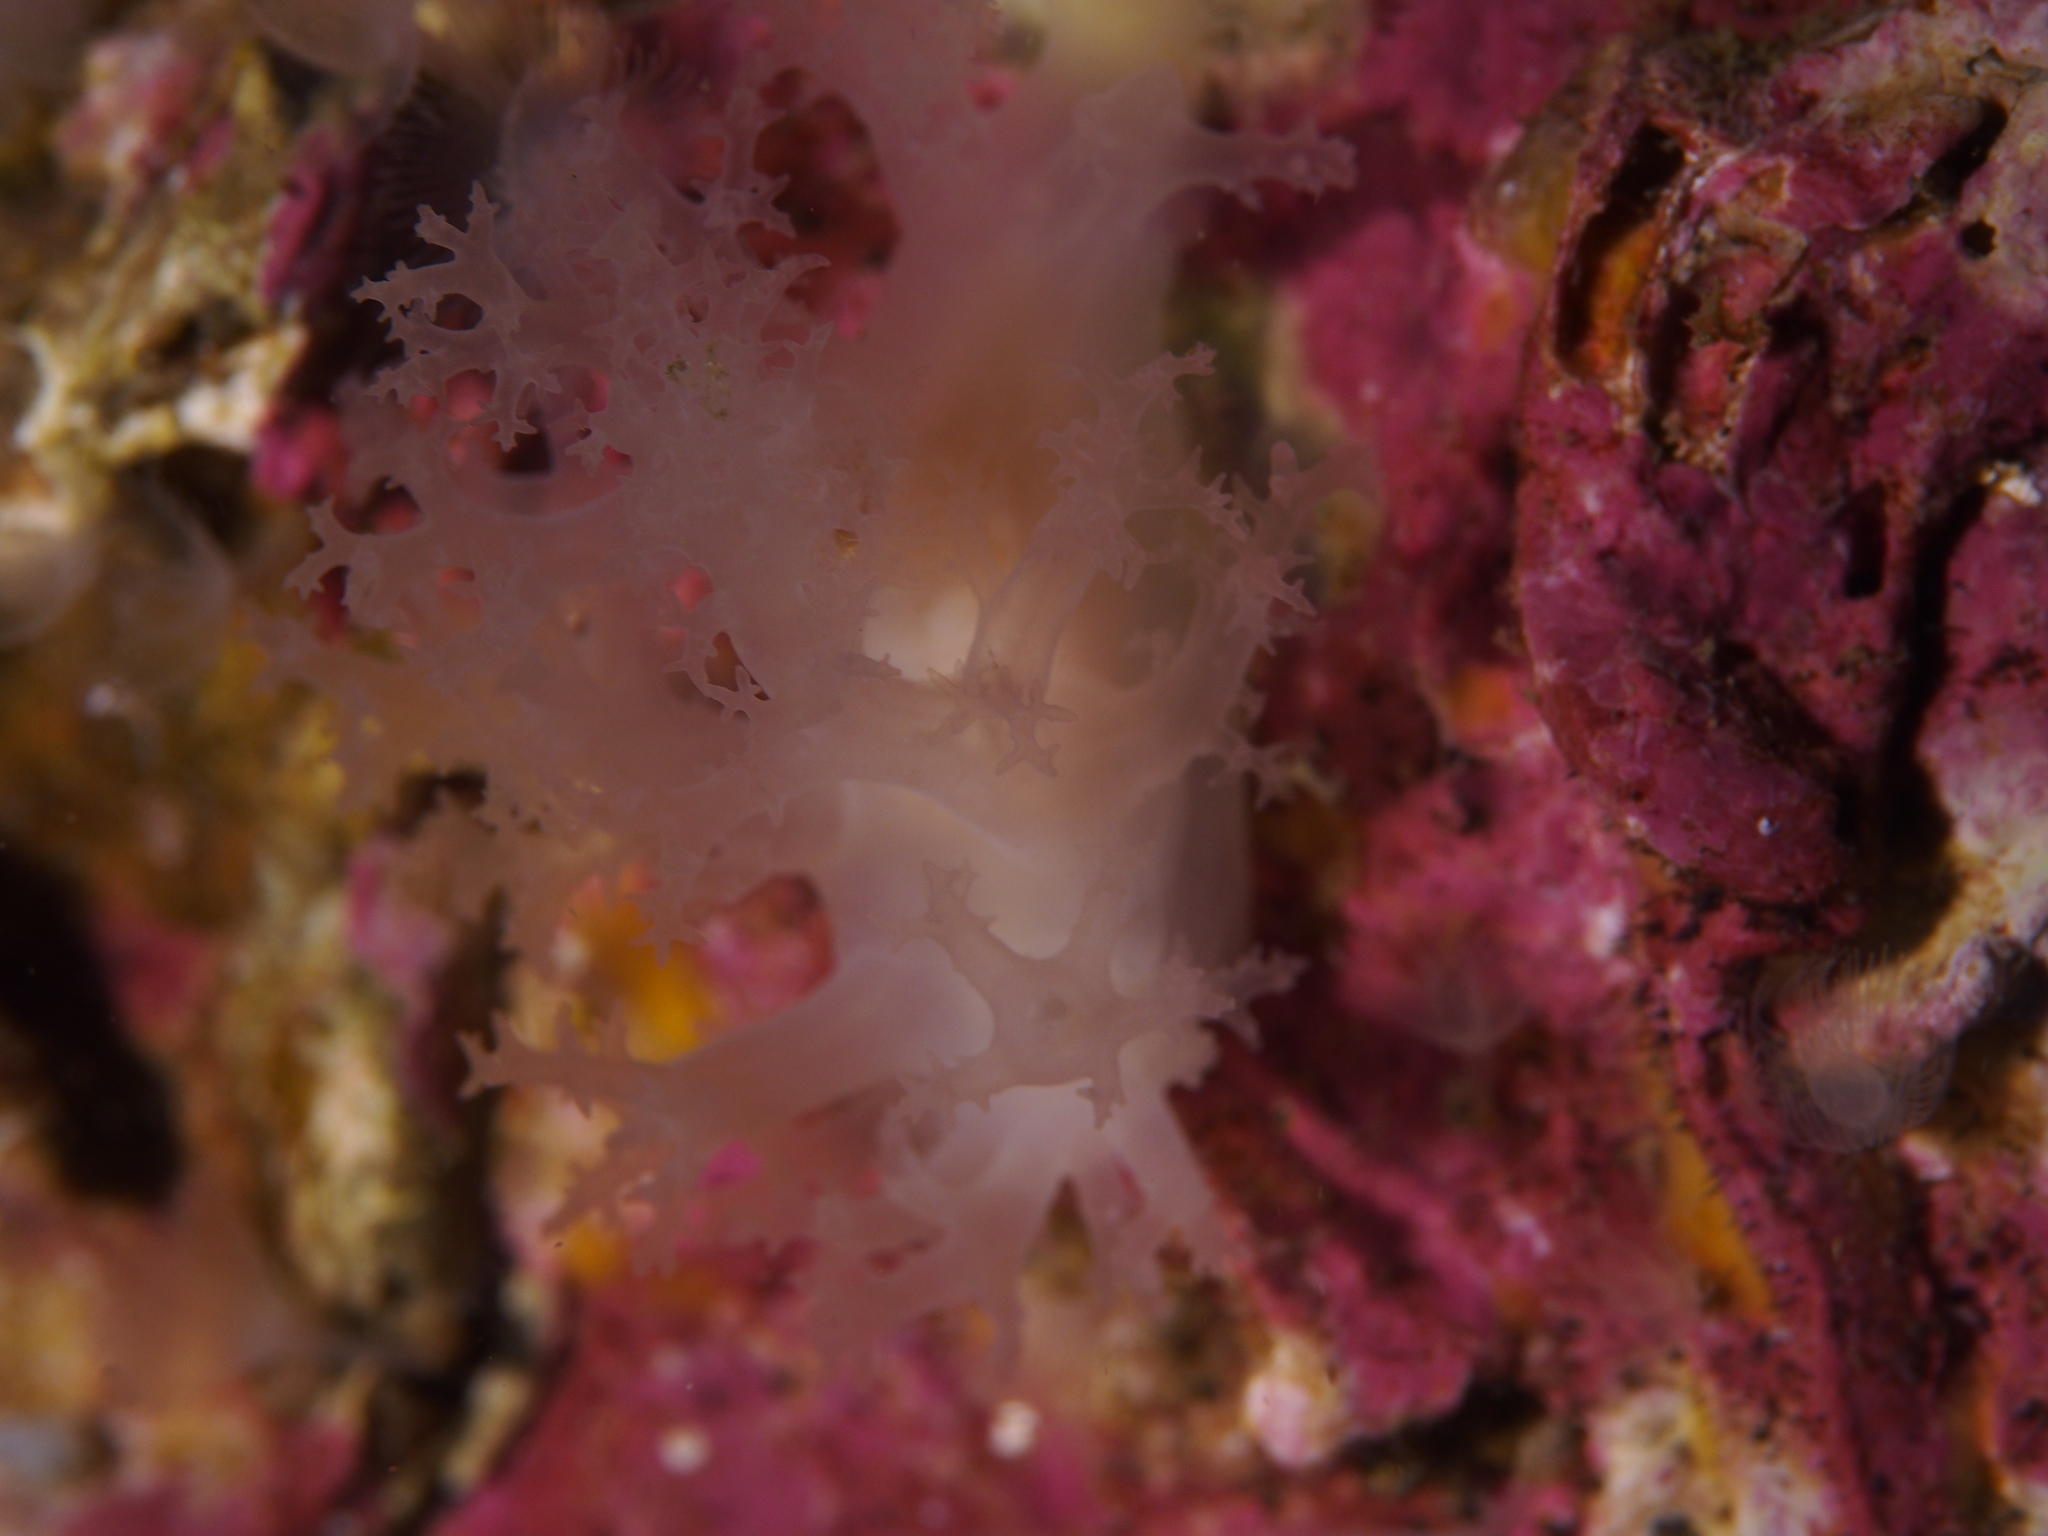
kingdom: Animalia
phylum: Mollusca
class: Gastropoda
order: Nudibranchia
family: Dendronotidae
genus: Dendronotus
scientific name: Dendronotus lacteus
